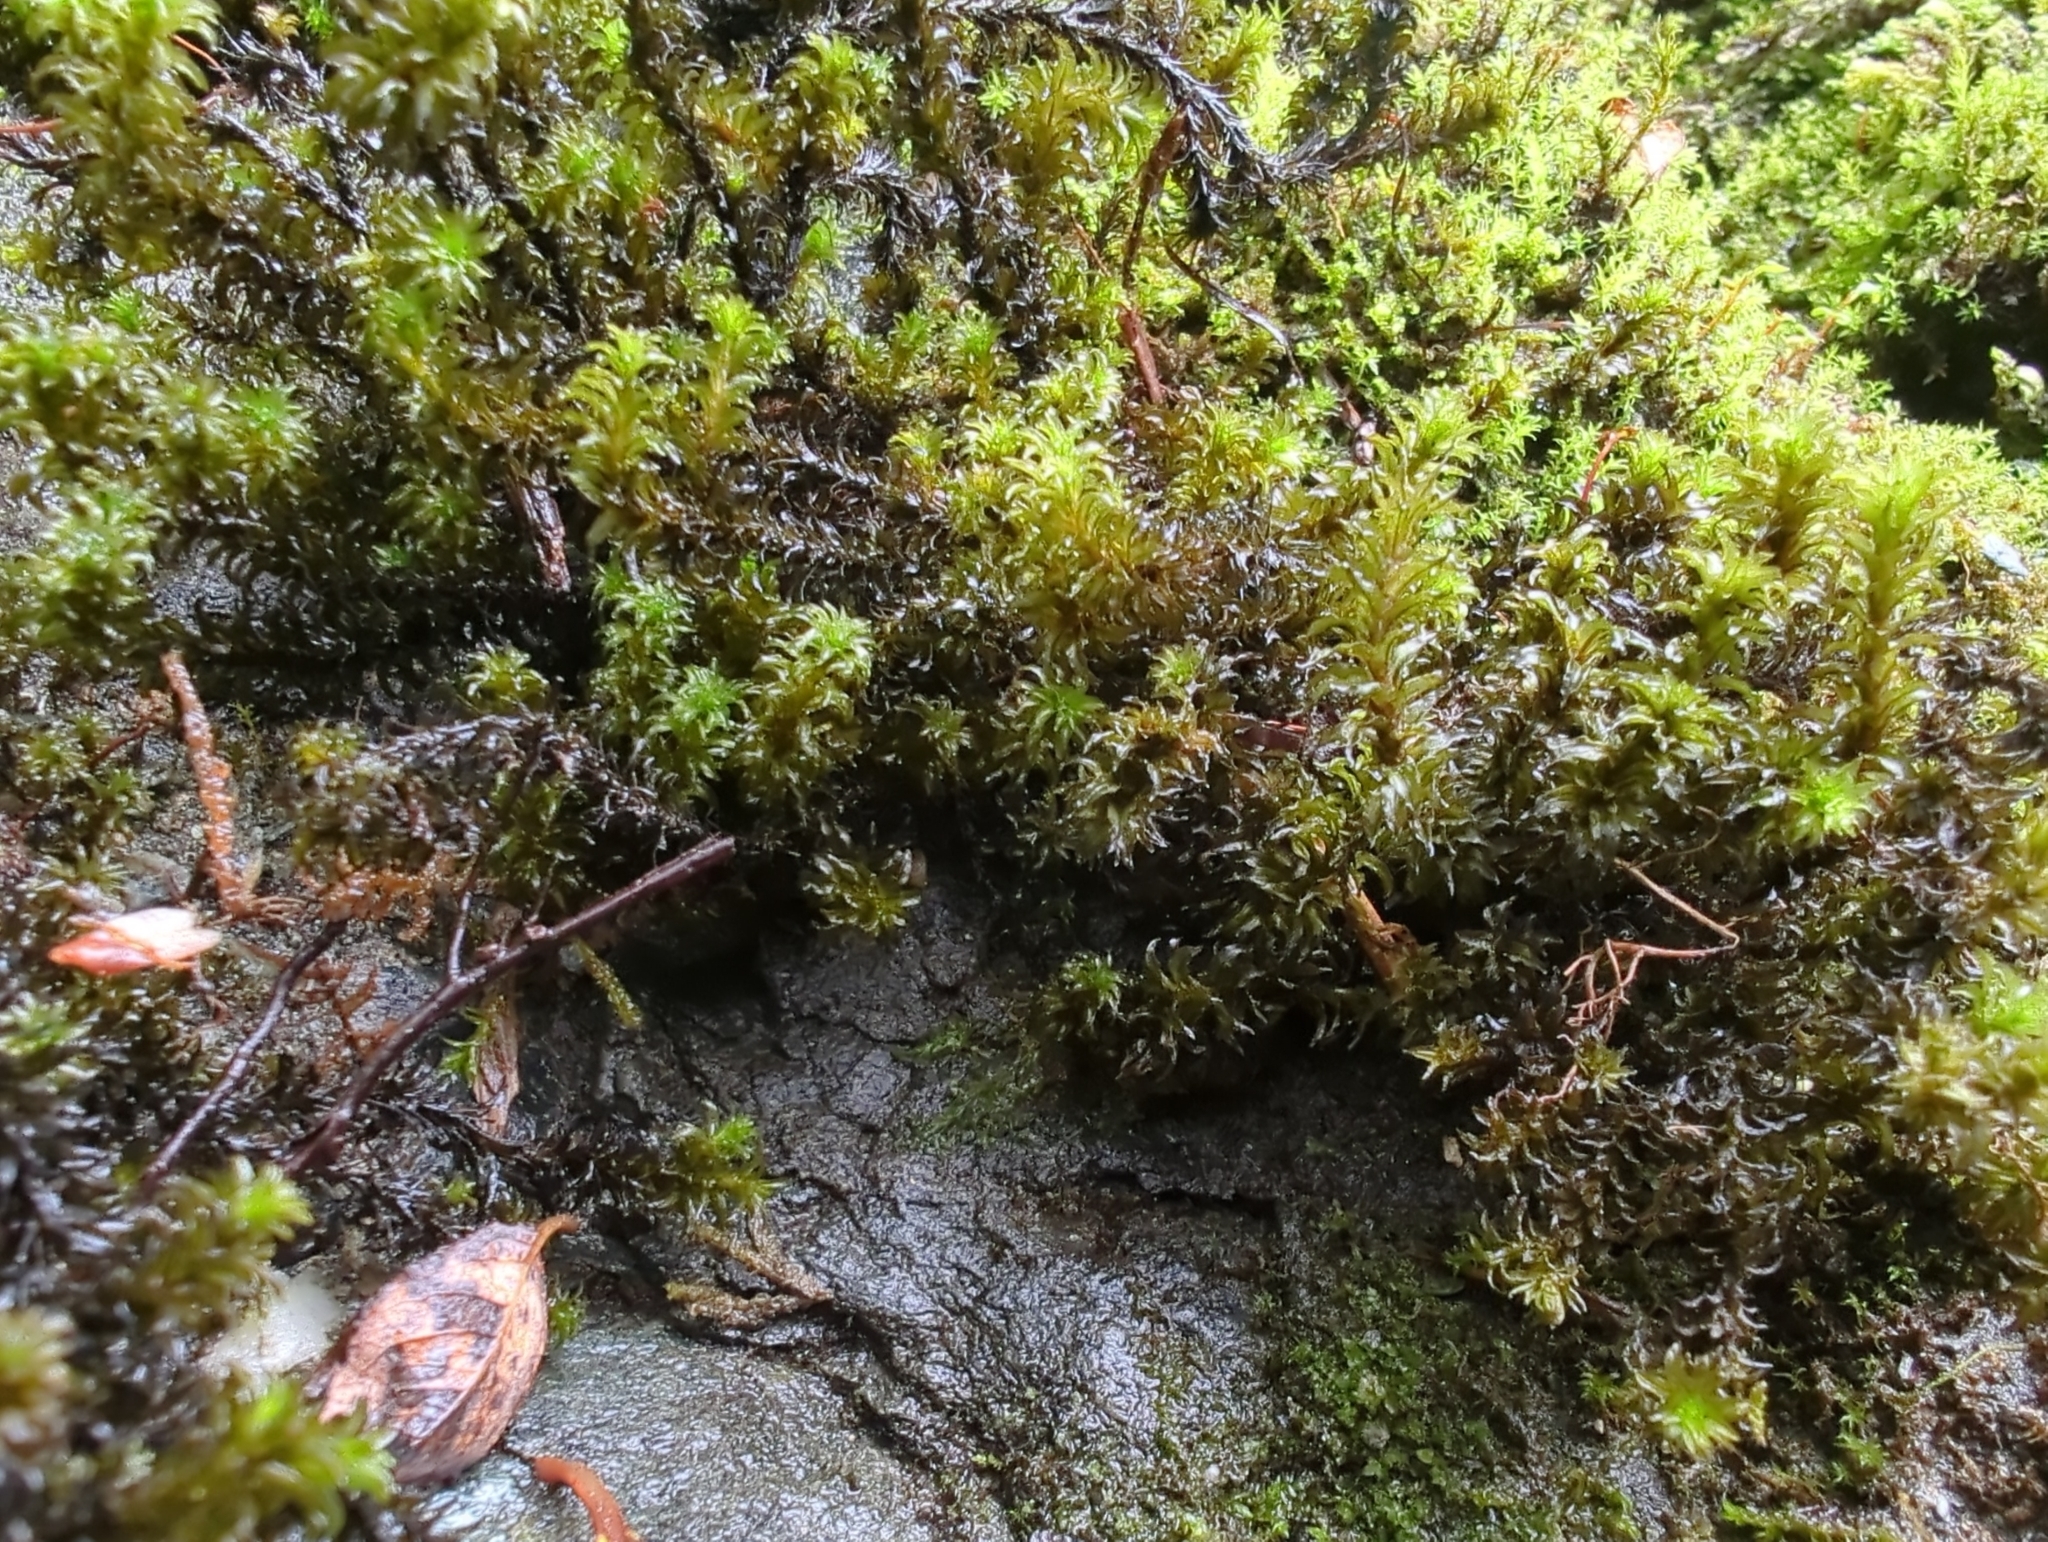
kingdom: Plantae
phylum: Bryophyta
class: Bryopsida
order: Scouleriales
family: Scouleriaceae
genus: Scouleria
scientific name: Scouleria aquatica
